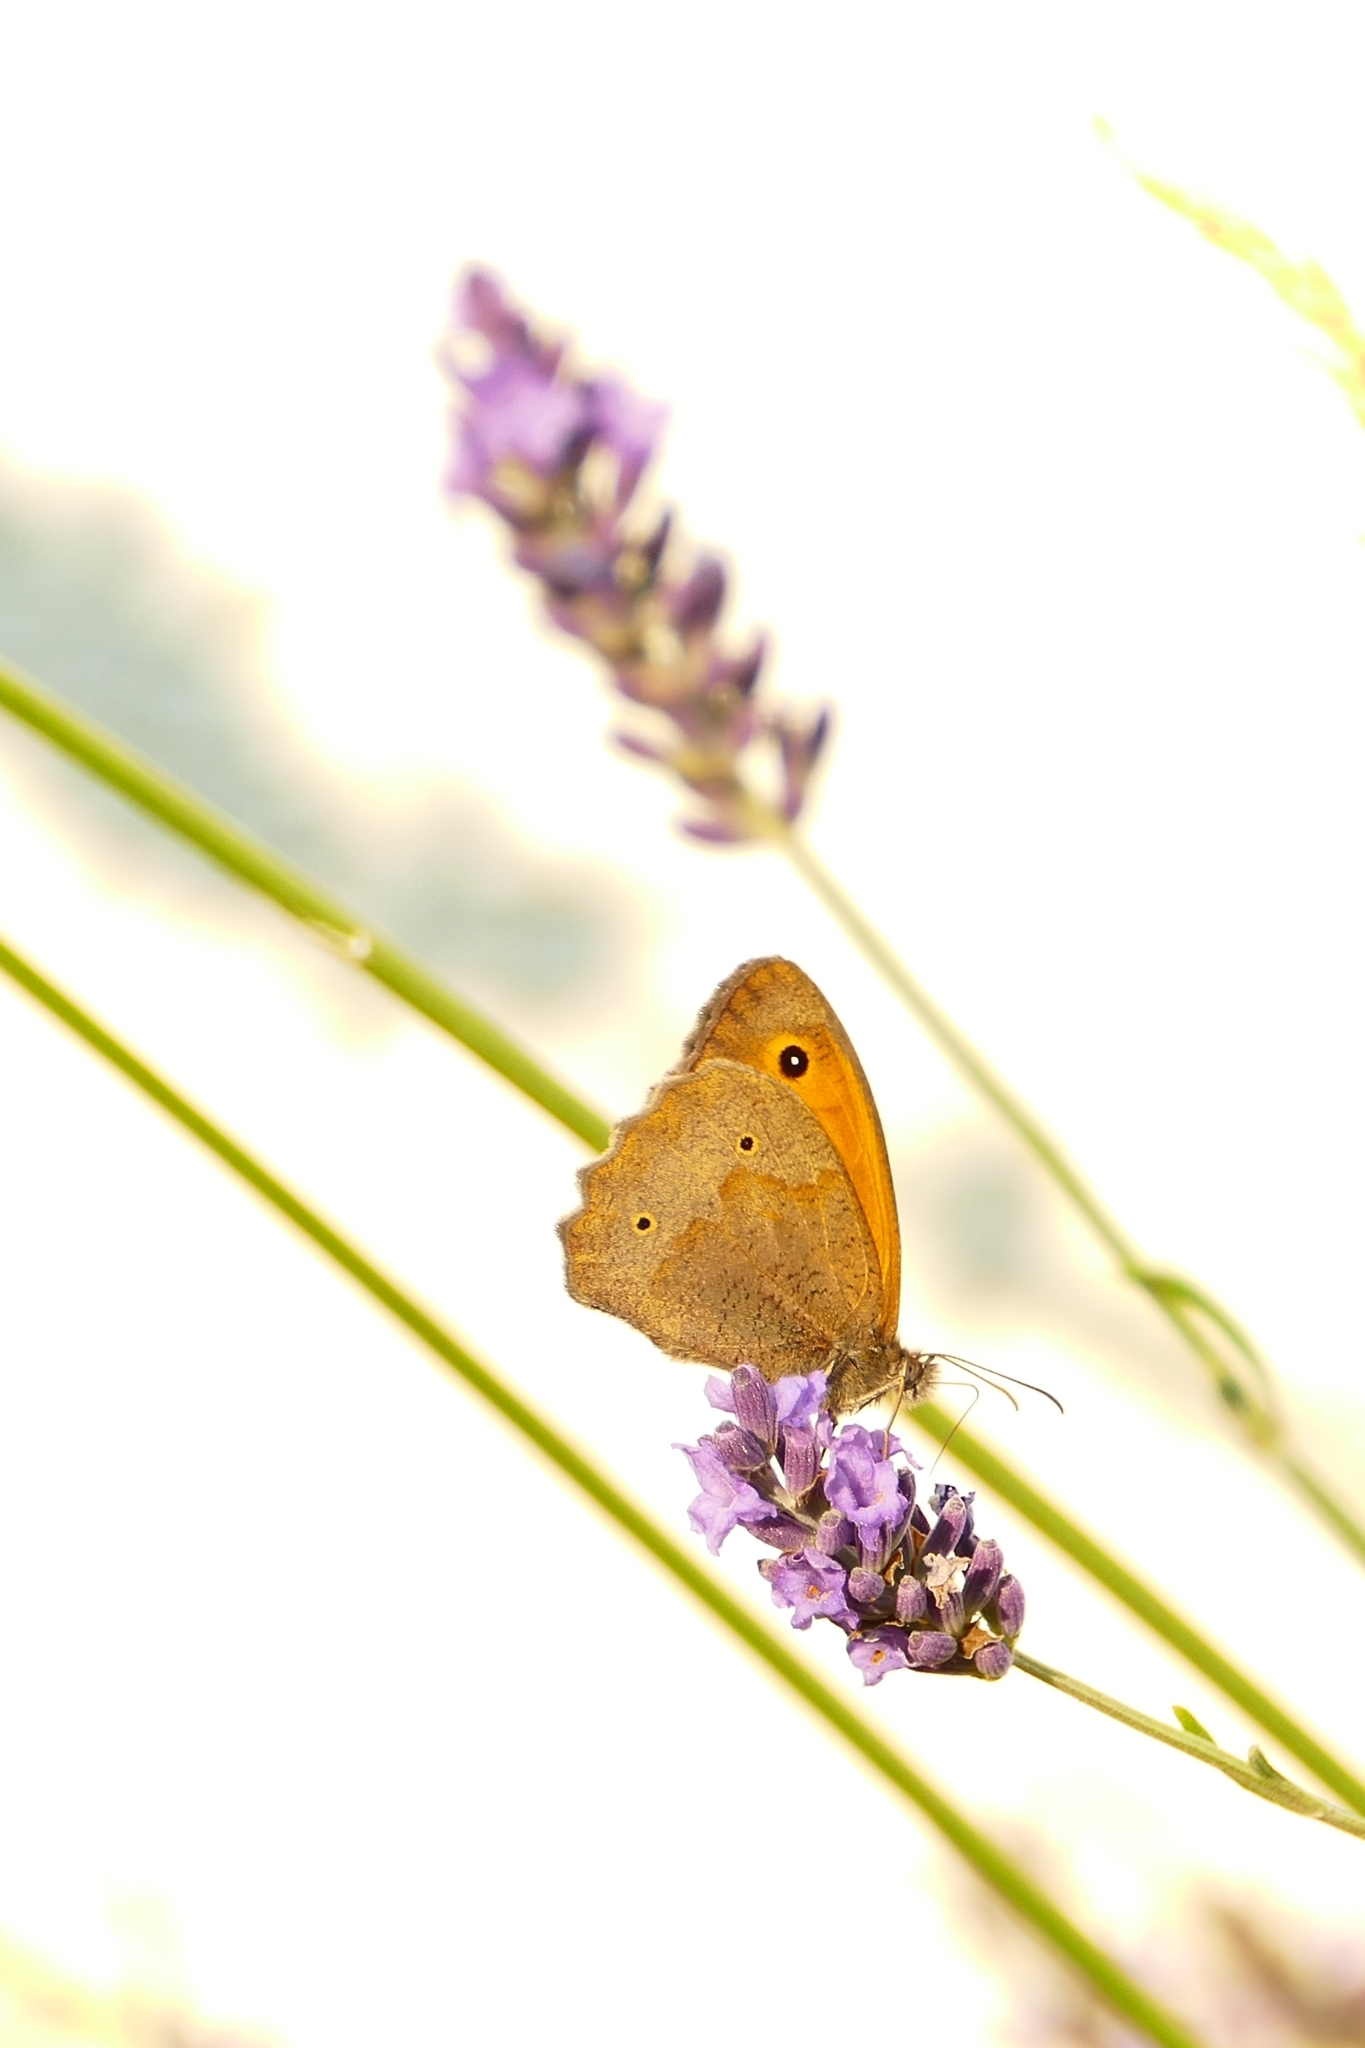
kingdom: Animalia
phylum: Arthropoda
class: Insecta
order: Lepidoptera
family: Nymphalidae
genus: Maniola
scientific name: Maniola jurtina
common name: Meadow brown
